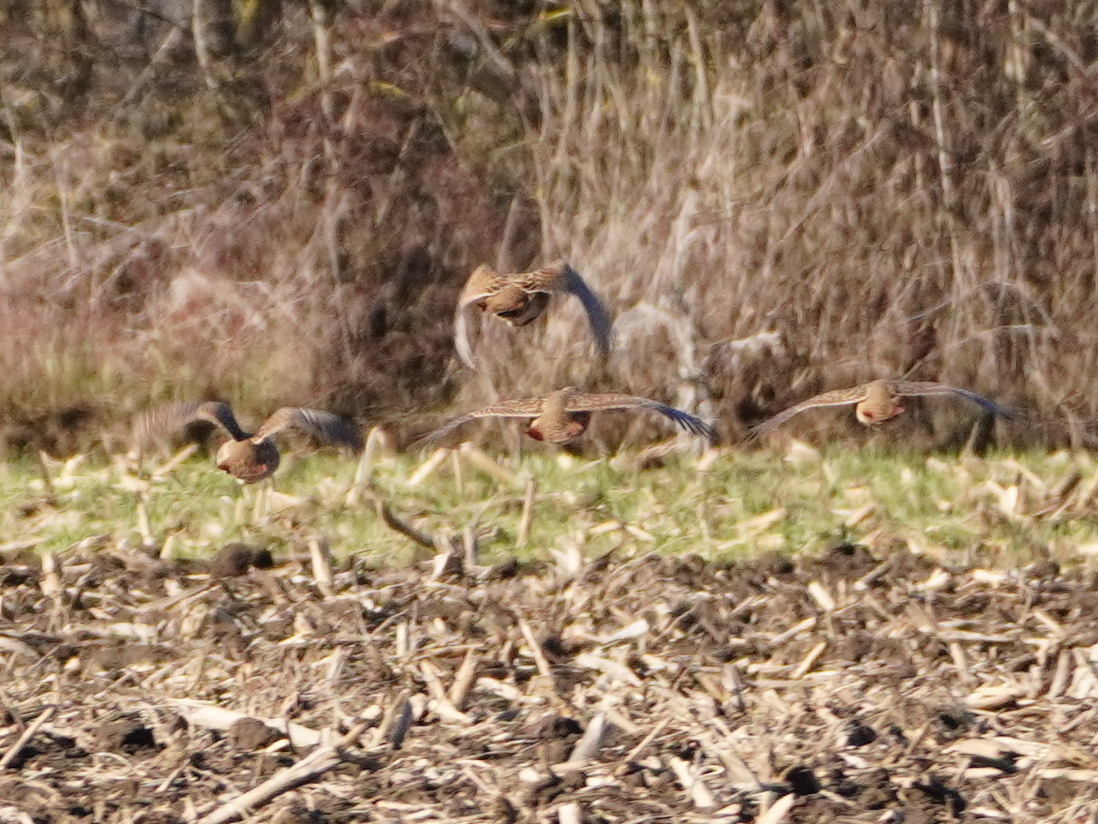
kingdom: Animalia
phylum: Chordata
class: Aves
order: Galliformes
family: Phasianidae
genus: Perdix
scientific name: Perdix perdix
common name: Grey partridge
